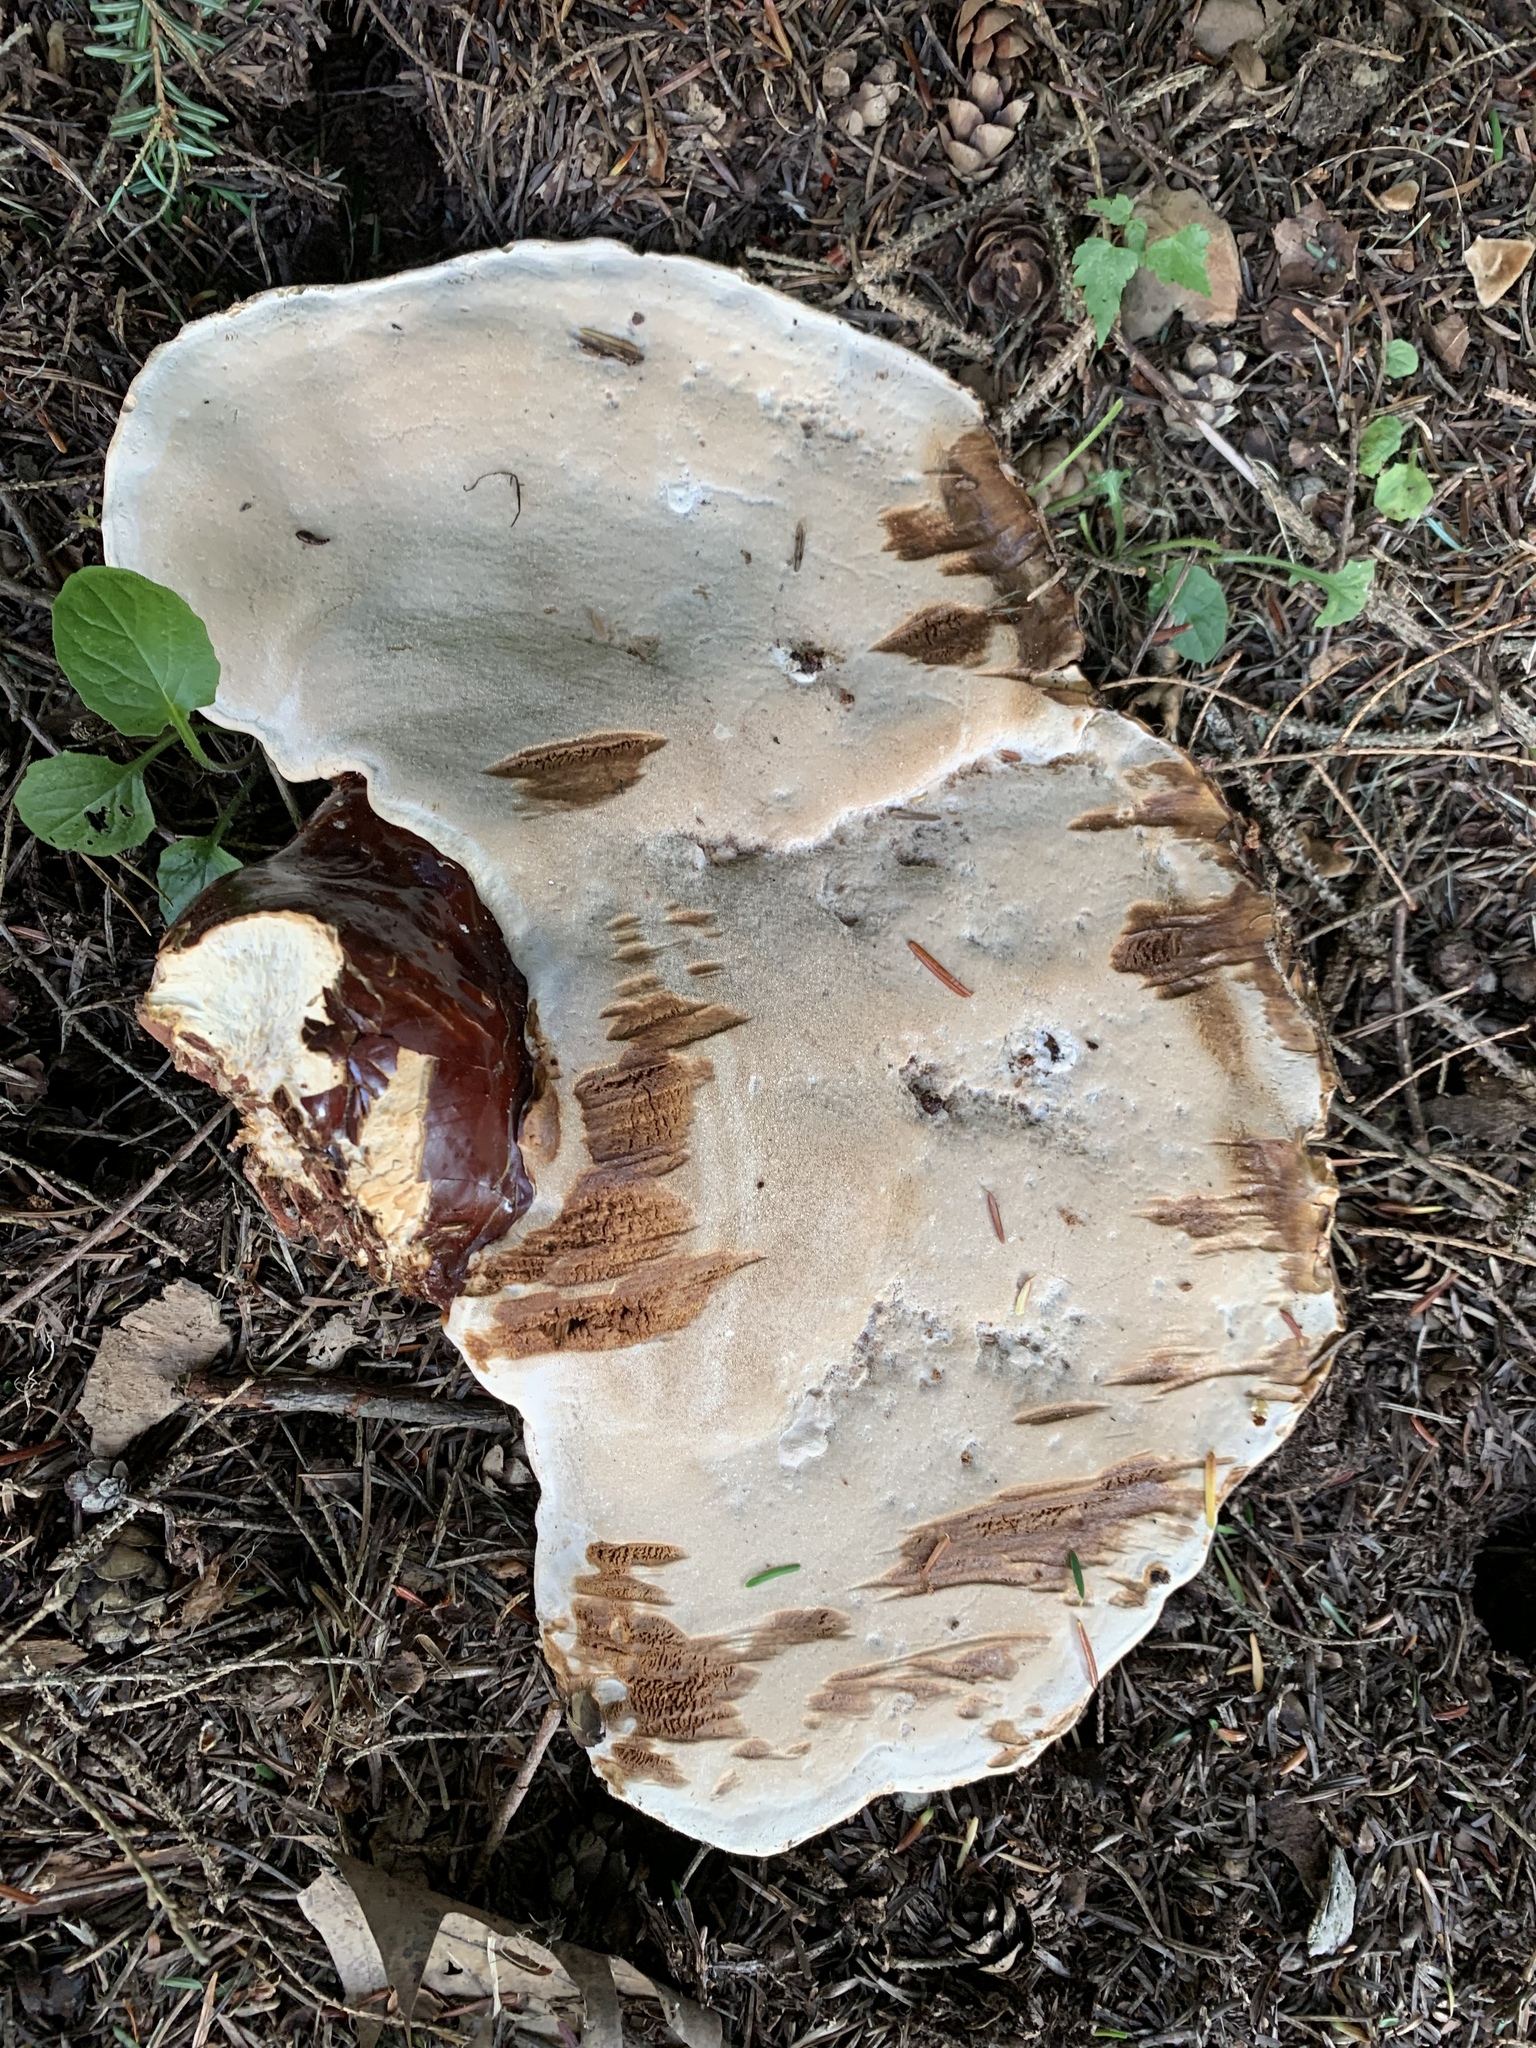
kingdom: Fungi
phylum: Basidiomycota
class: Agaricomycetes
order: Polyporales
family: Polyporaceae
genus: Ganoderma
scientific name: Ganoderma tsugae
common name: Hemlock varnish shelf
